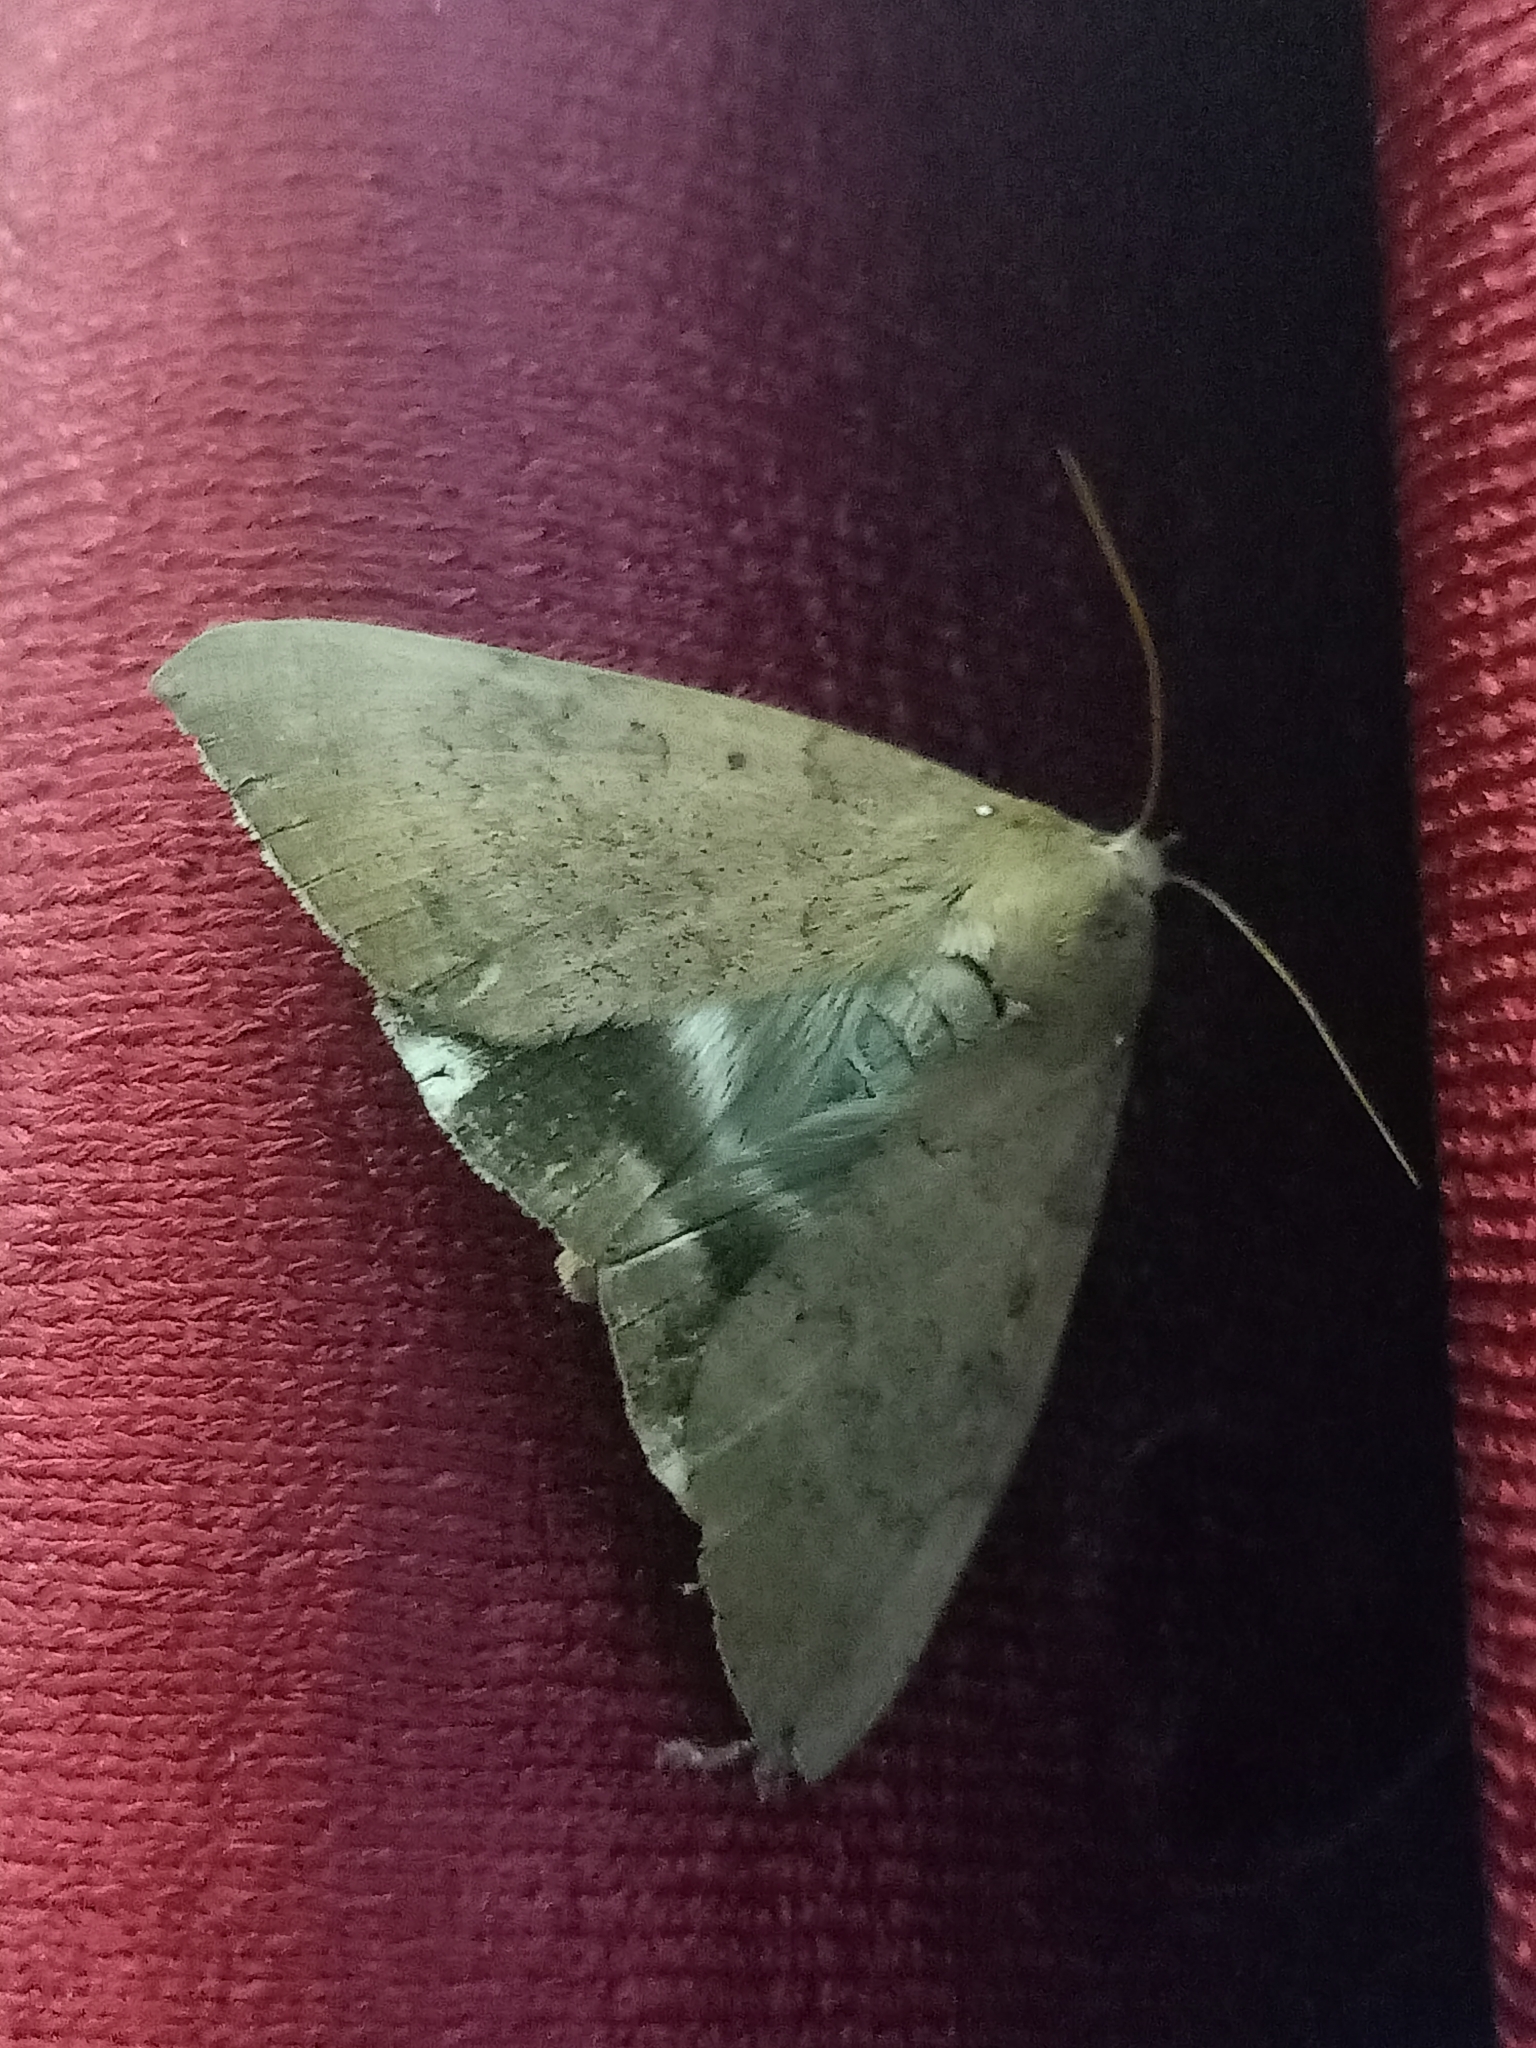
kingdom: Animalia
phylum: Arthropoda
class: Insecta
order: Lepidoptera
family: Erebidae
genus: Achaea
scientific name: Achaea serva
